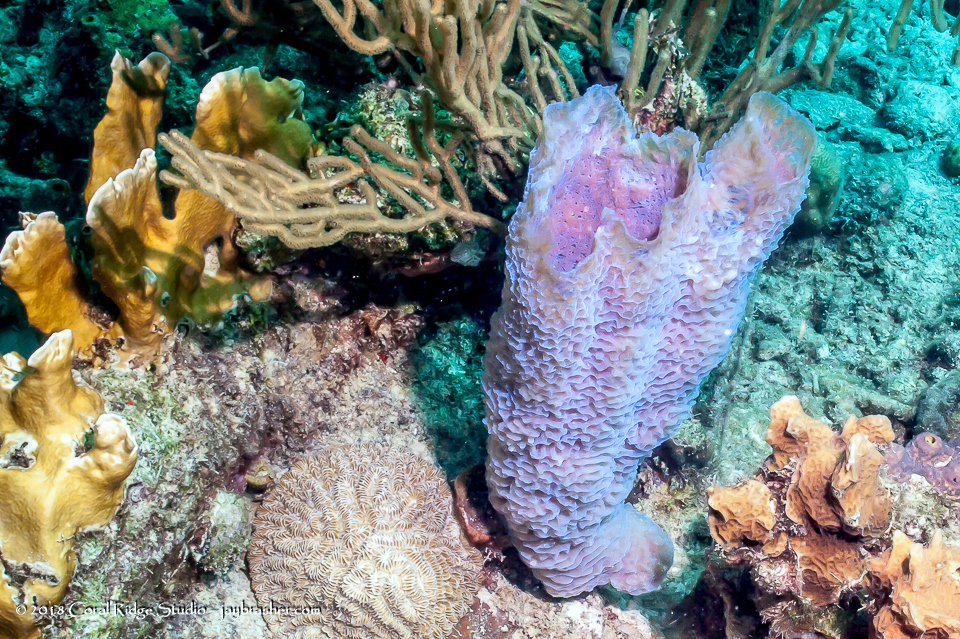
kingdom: Animalia
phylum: Porifera
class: Demospongiae
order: Haplosclerida
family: Callyspongiidae
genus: Callyspongia
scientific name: Callyspongia plicifera
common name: Azure vase sponge
